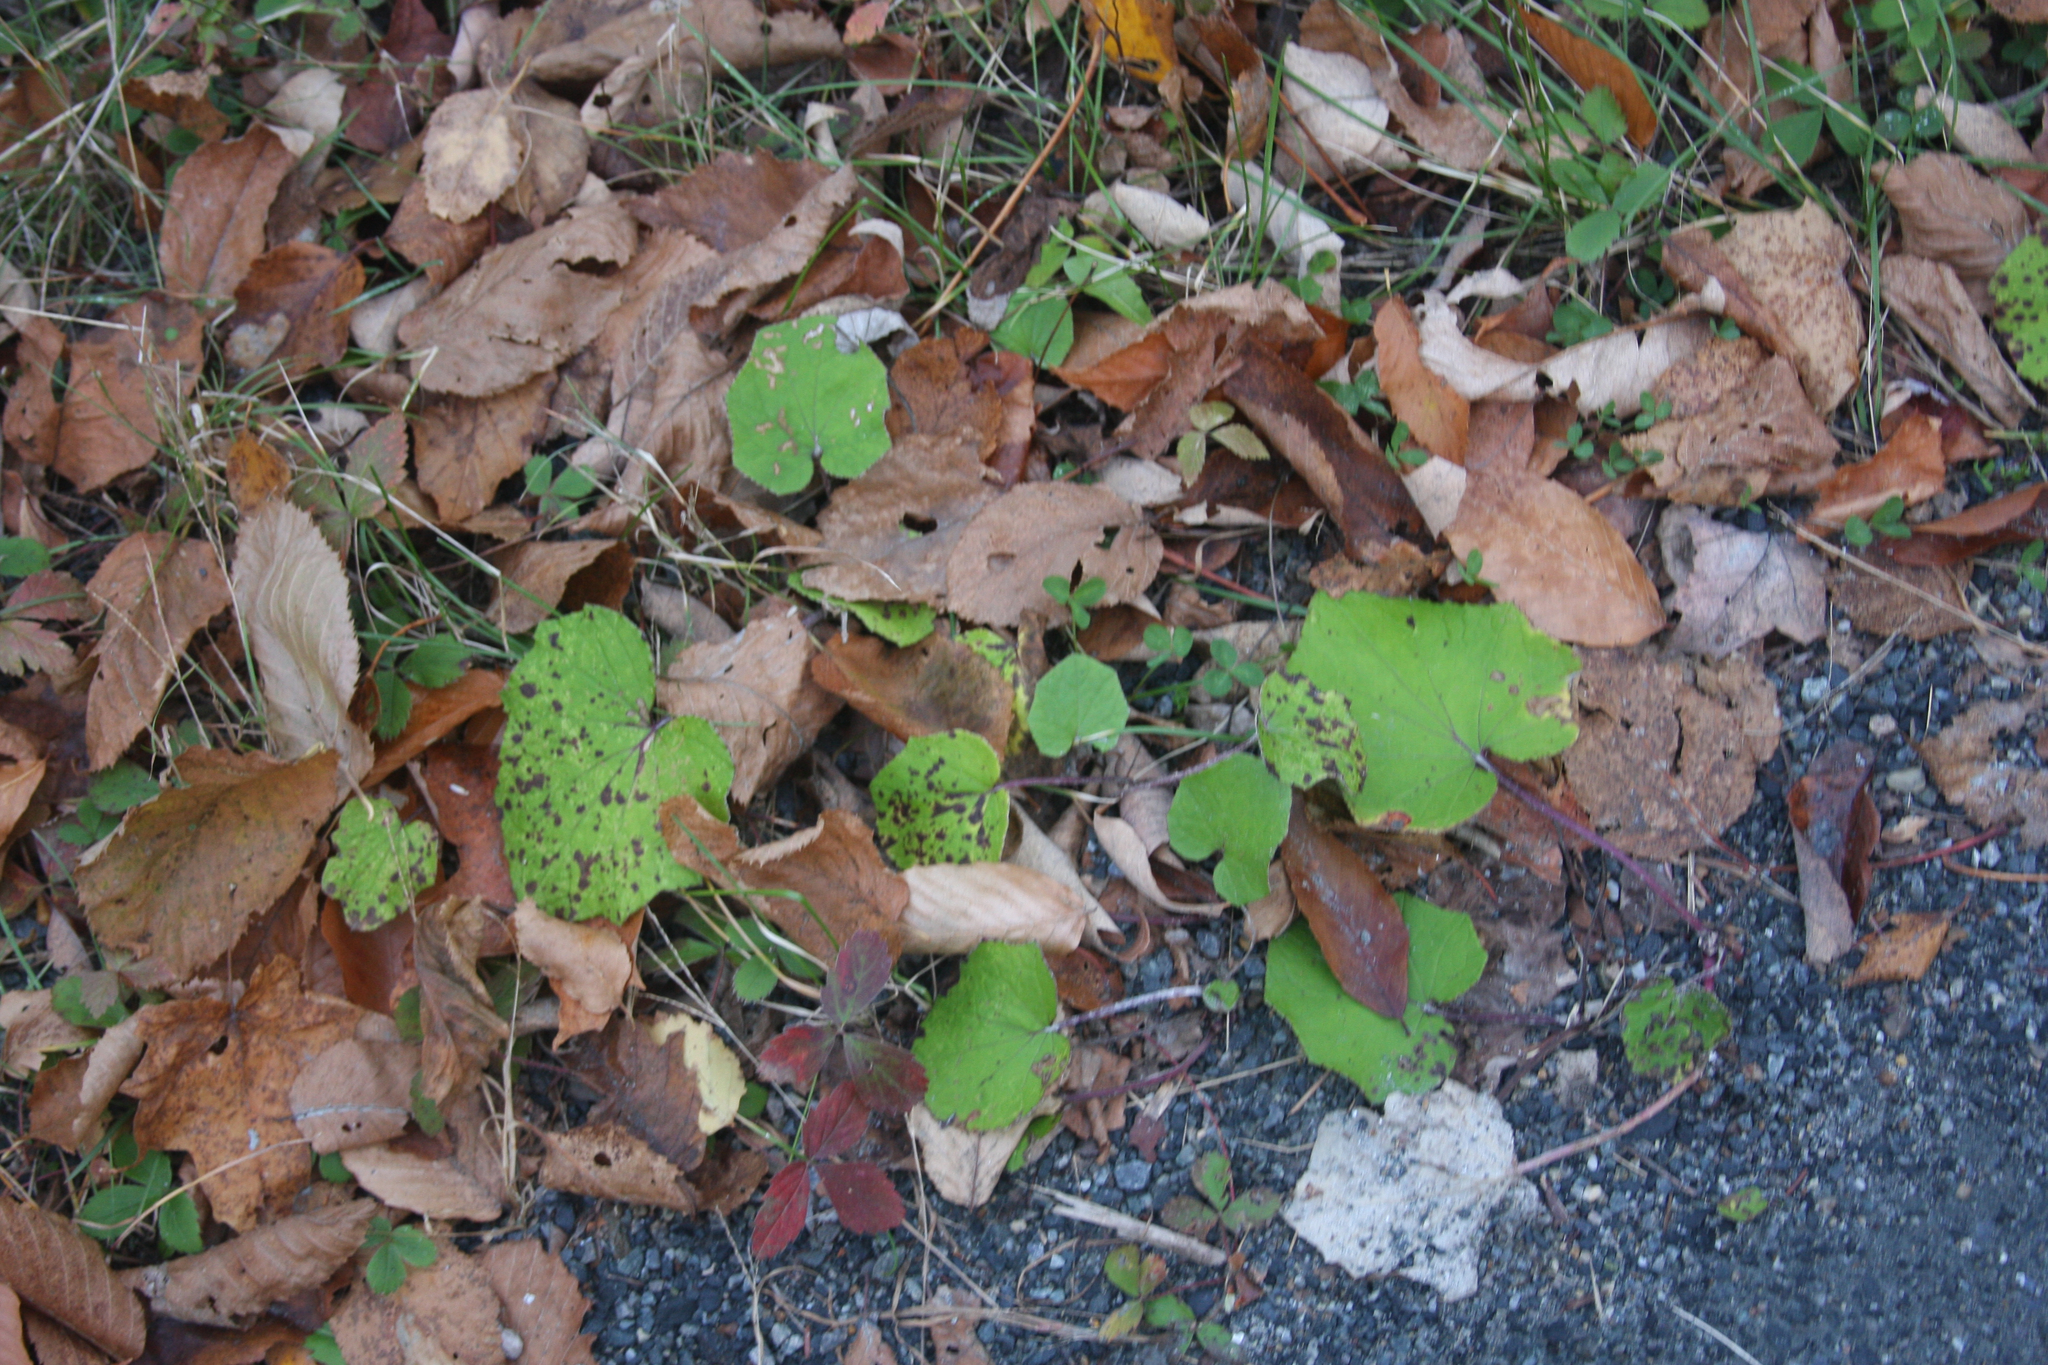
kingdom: Plantae
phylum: Tracheophyta
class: Magnoliopsida
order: Asterales
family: Asteraceae
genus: Tussilago
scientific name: Tussilago farfara
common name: Coltsfoot
